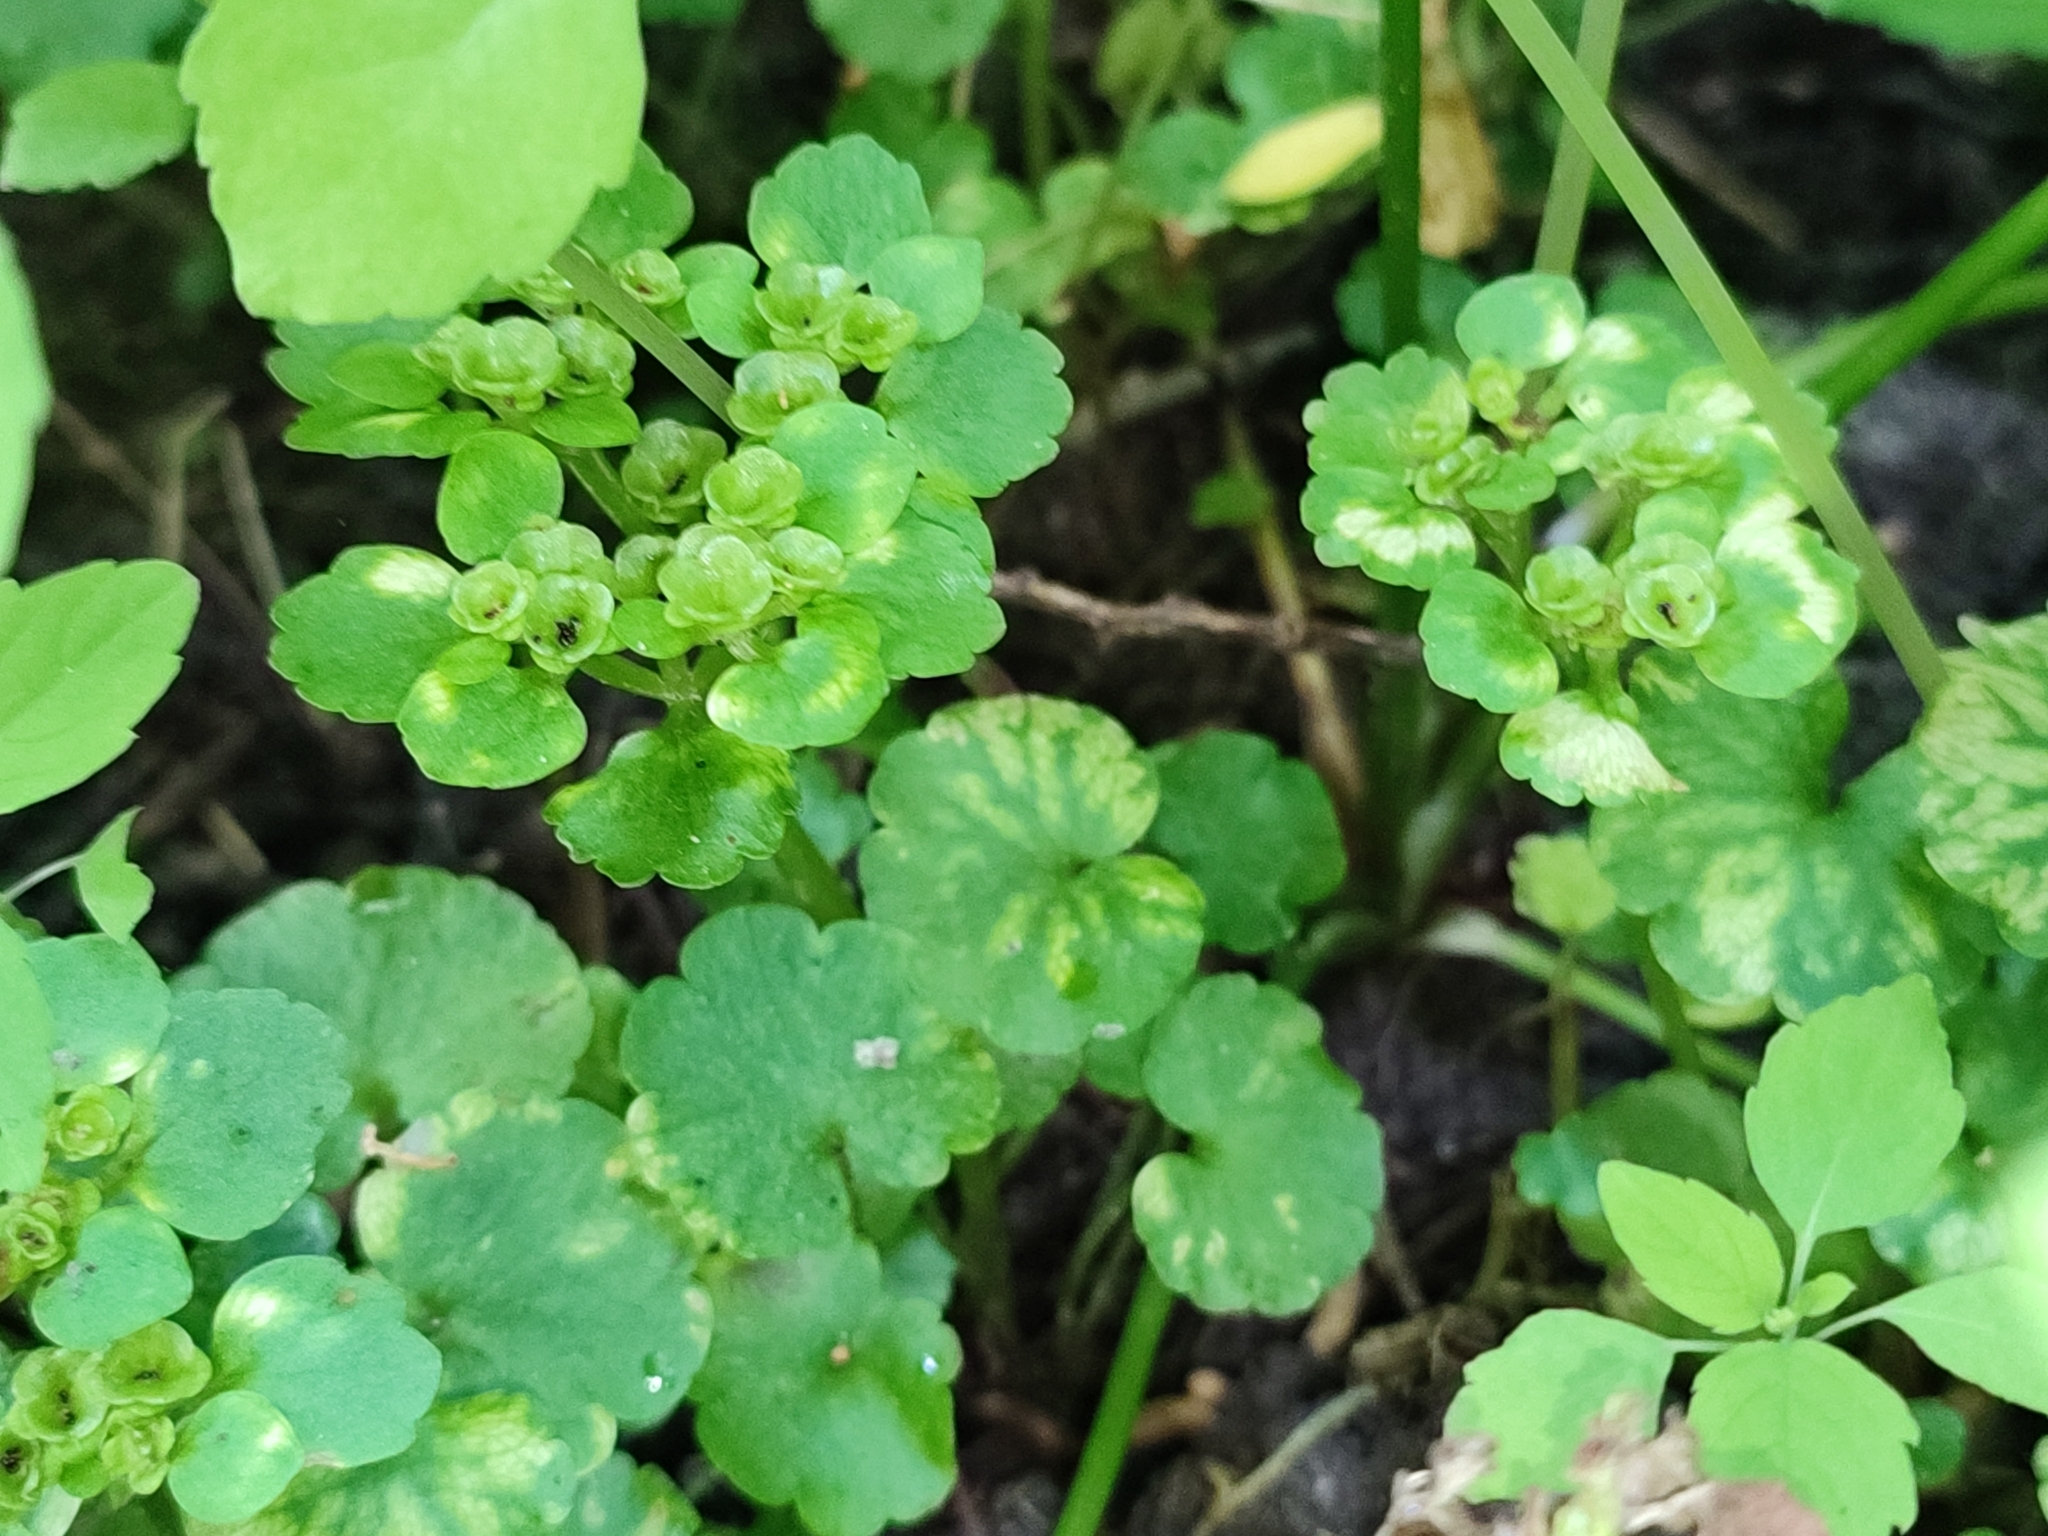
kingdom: Plantae
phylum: Tracheophyta
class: Magnoliopsida
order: Saxifragales
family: Saxifragaceae
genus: Chrysosplenium
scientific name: Chrysosplenium alternifolium
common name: Alternate-leaved golden-saxifrage
